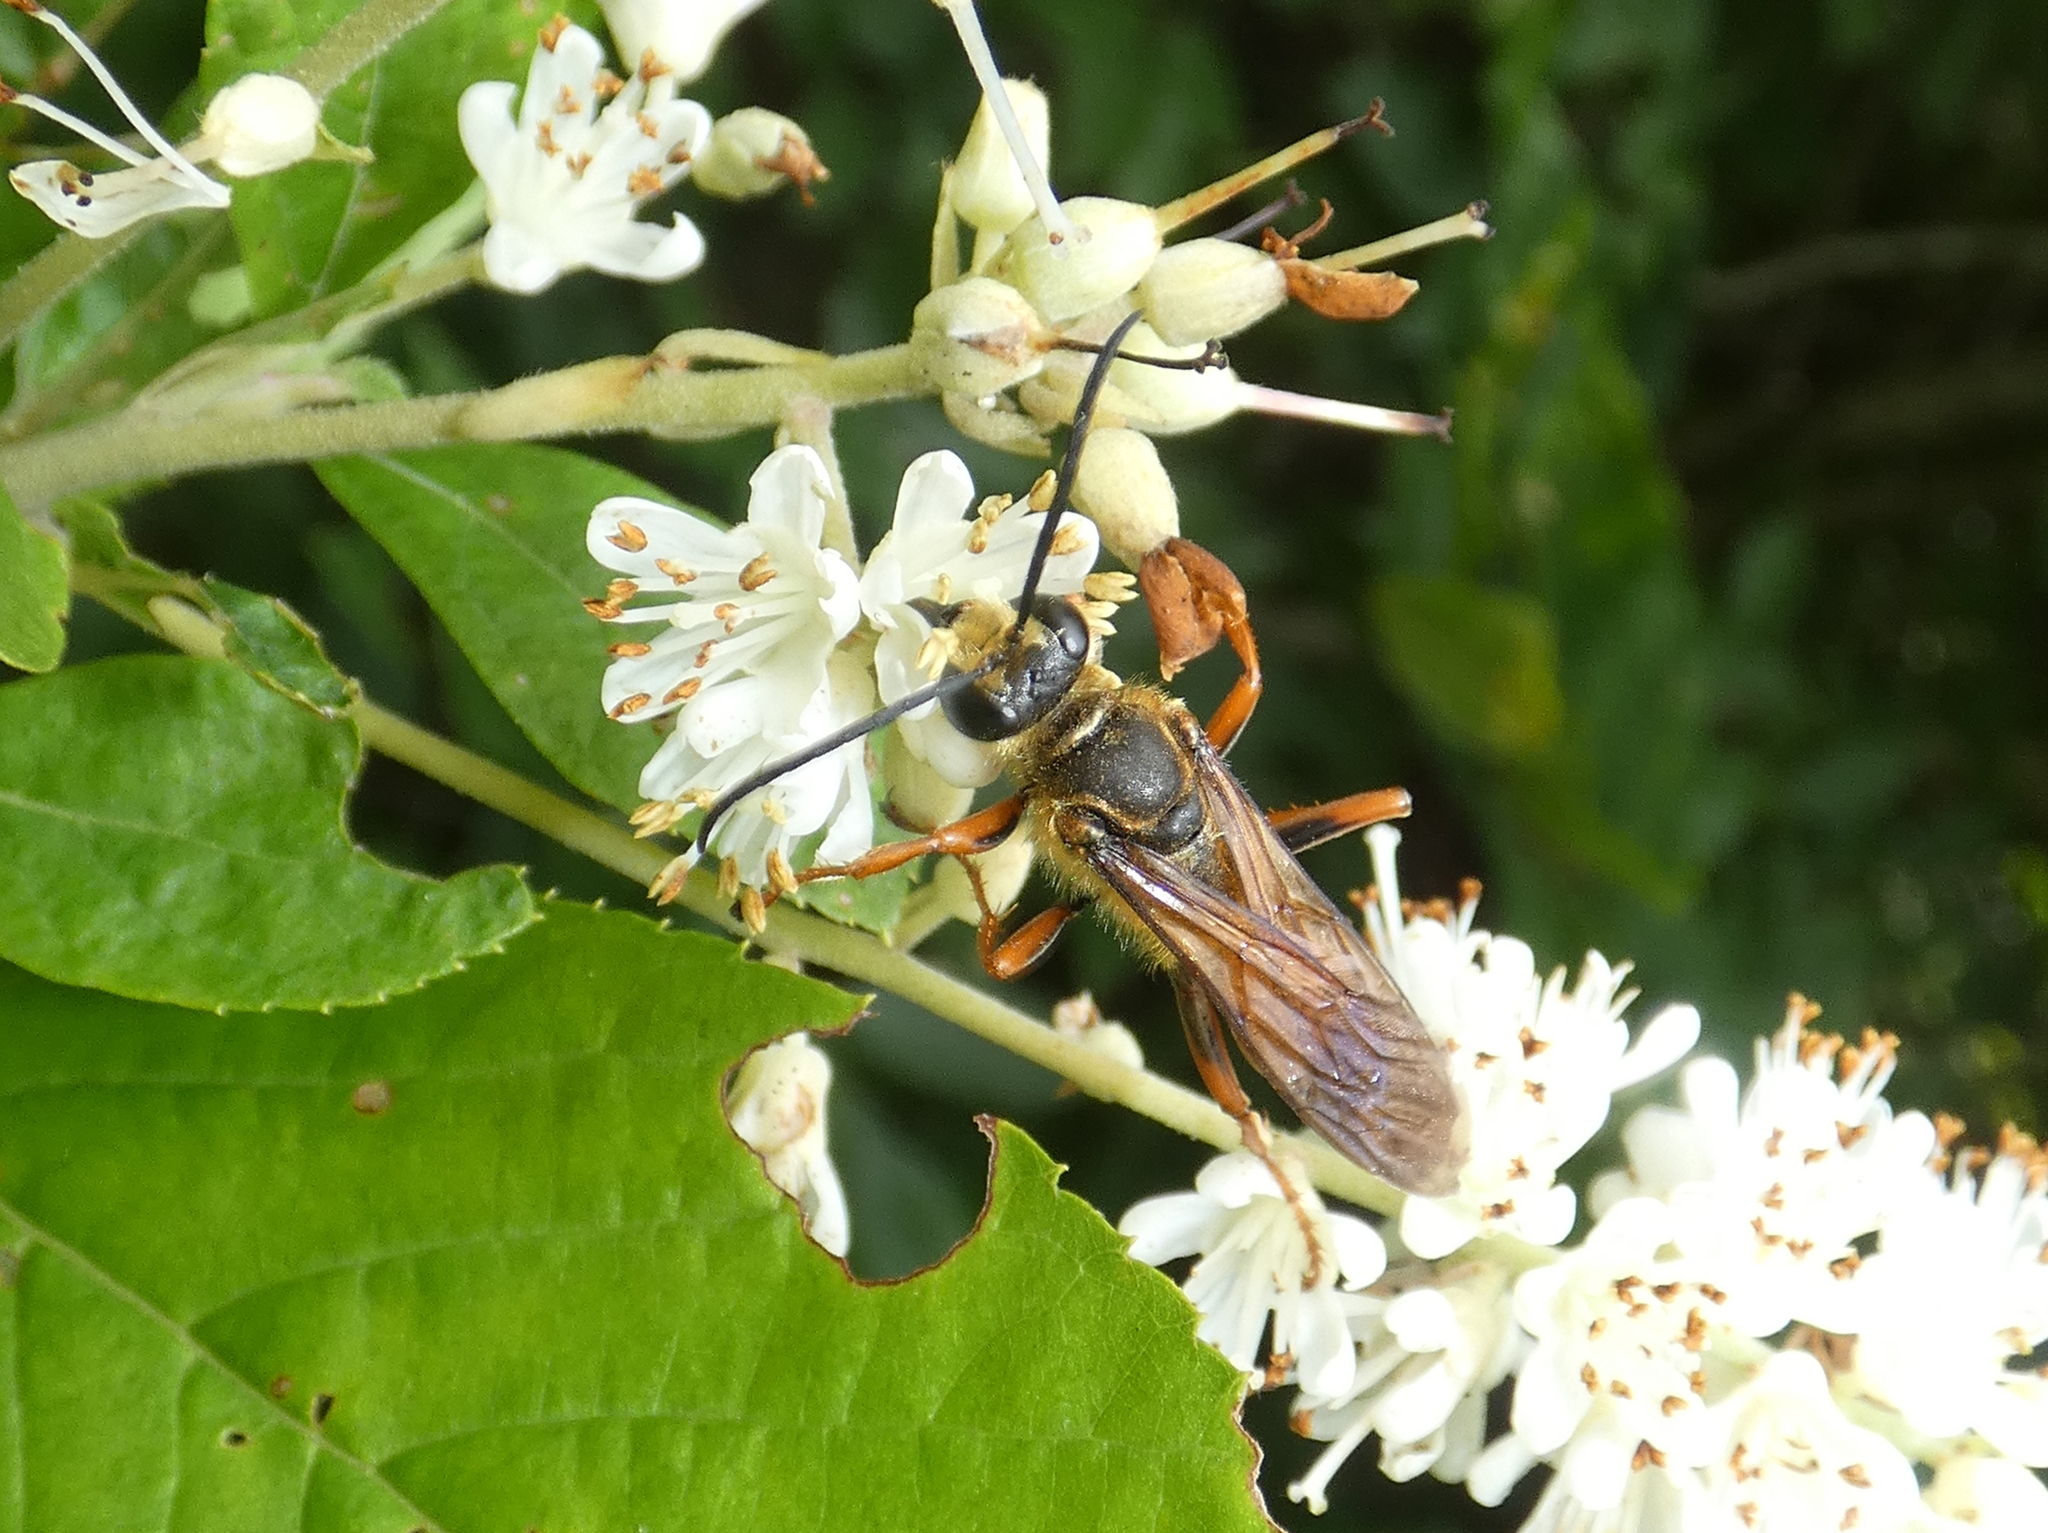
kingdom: Animalia
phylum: Arthropoda
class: Insecta
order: Hymenoptera
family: Sphecidae
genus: Sphex
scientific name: Sphex ichneumoneus
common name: Great golden digger wasp
